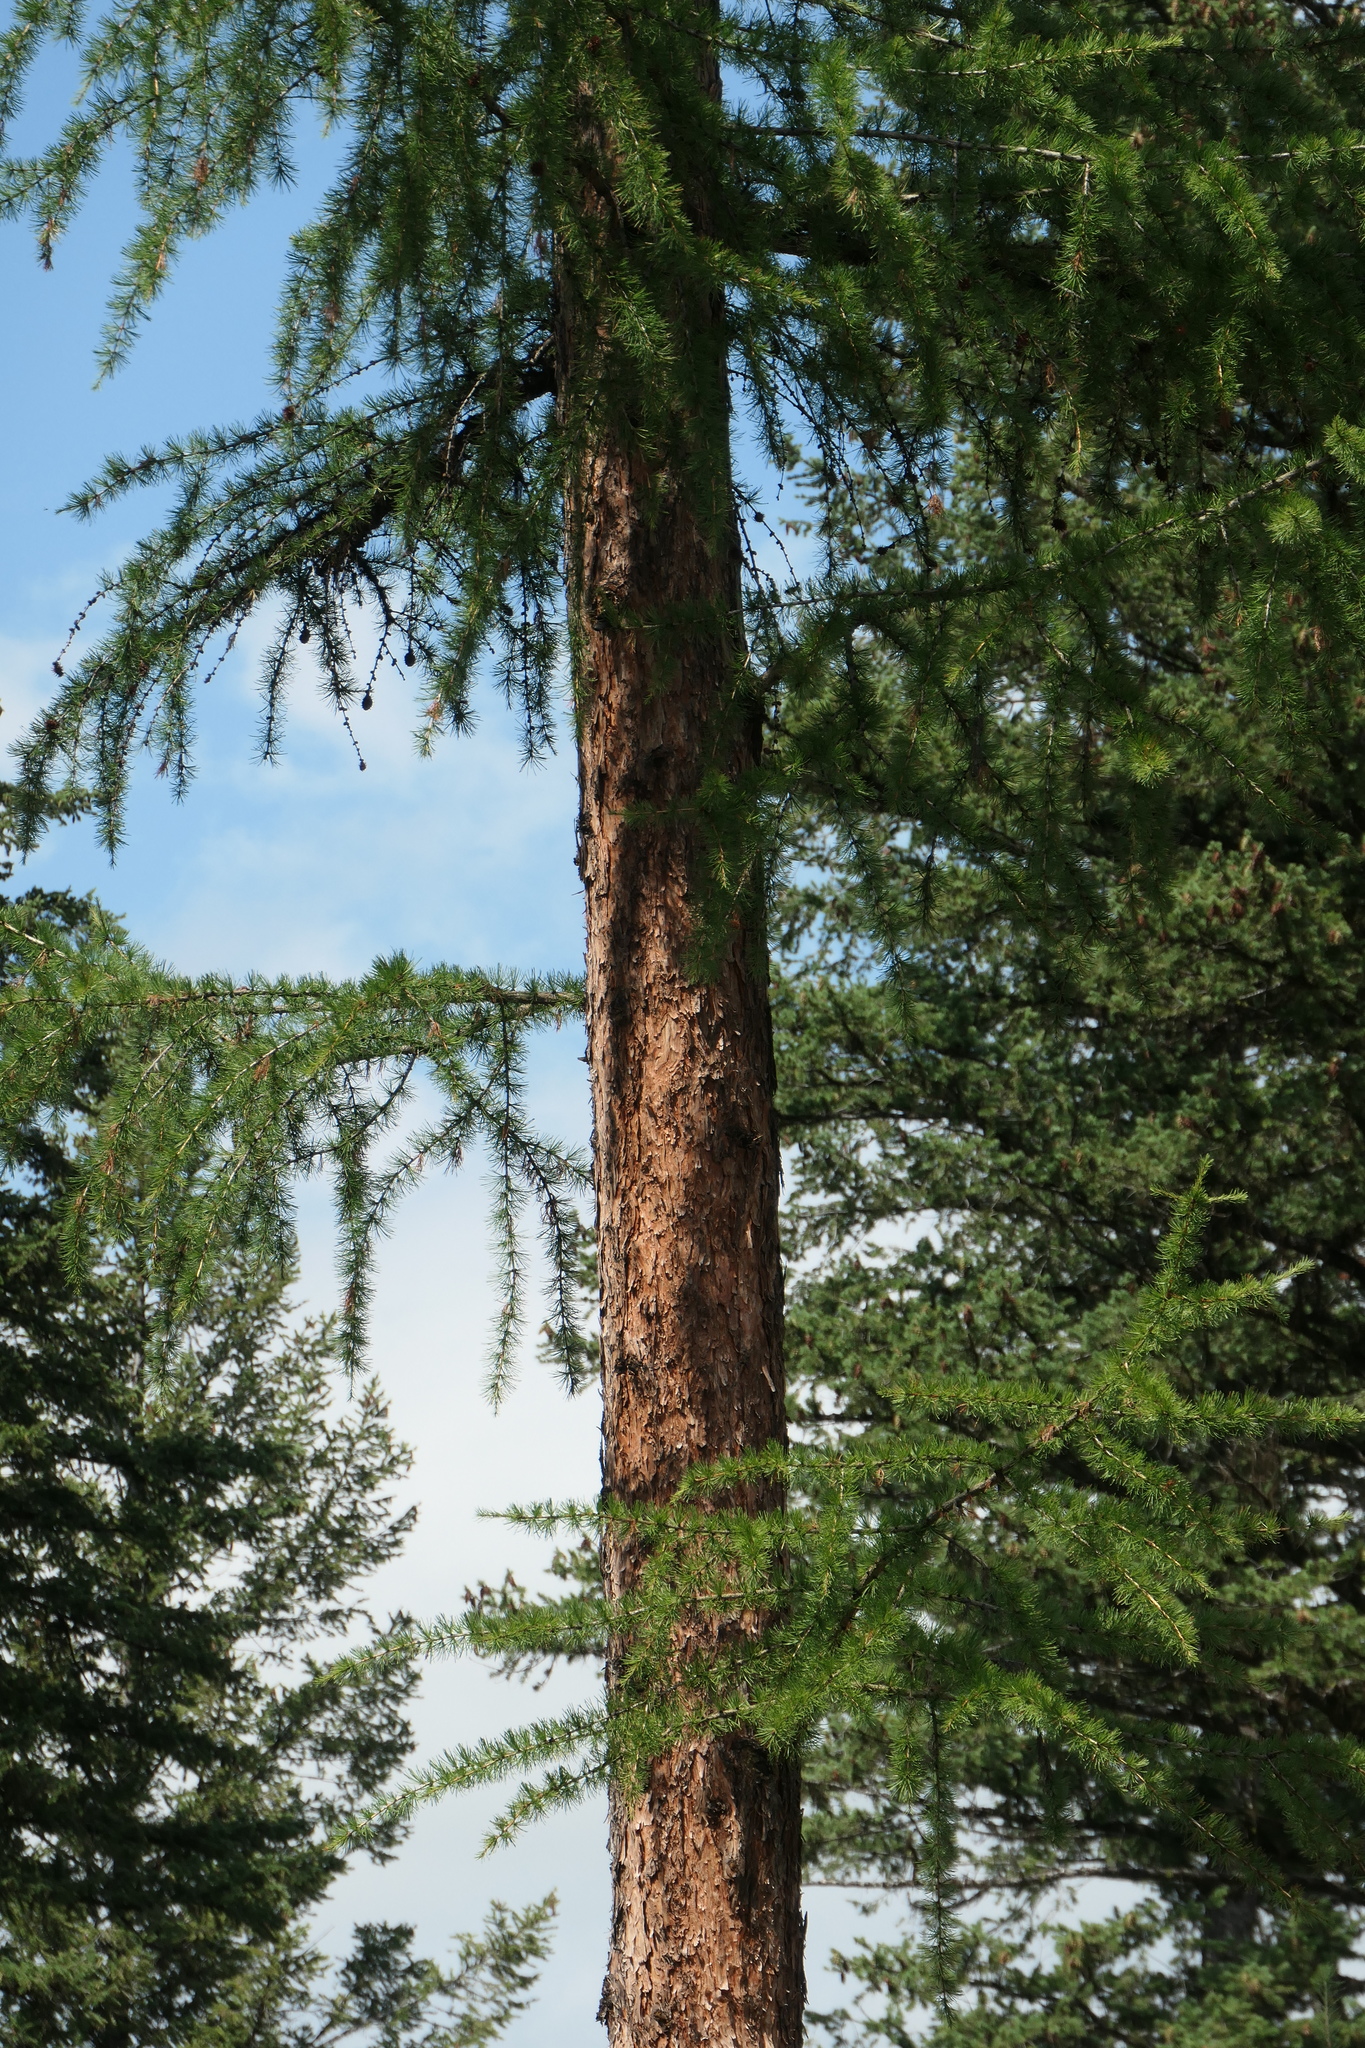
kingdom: Plantae
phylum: Tracheophyta
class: Pinopsida
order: Pinales
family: Pinaceae
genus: Larix
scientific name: Larix occidentalis
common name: Western larch
